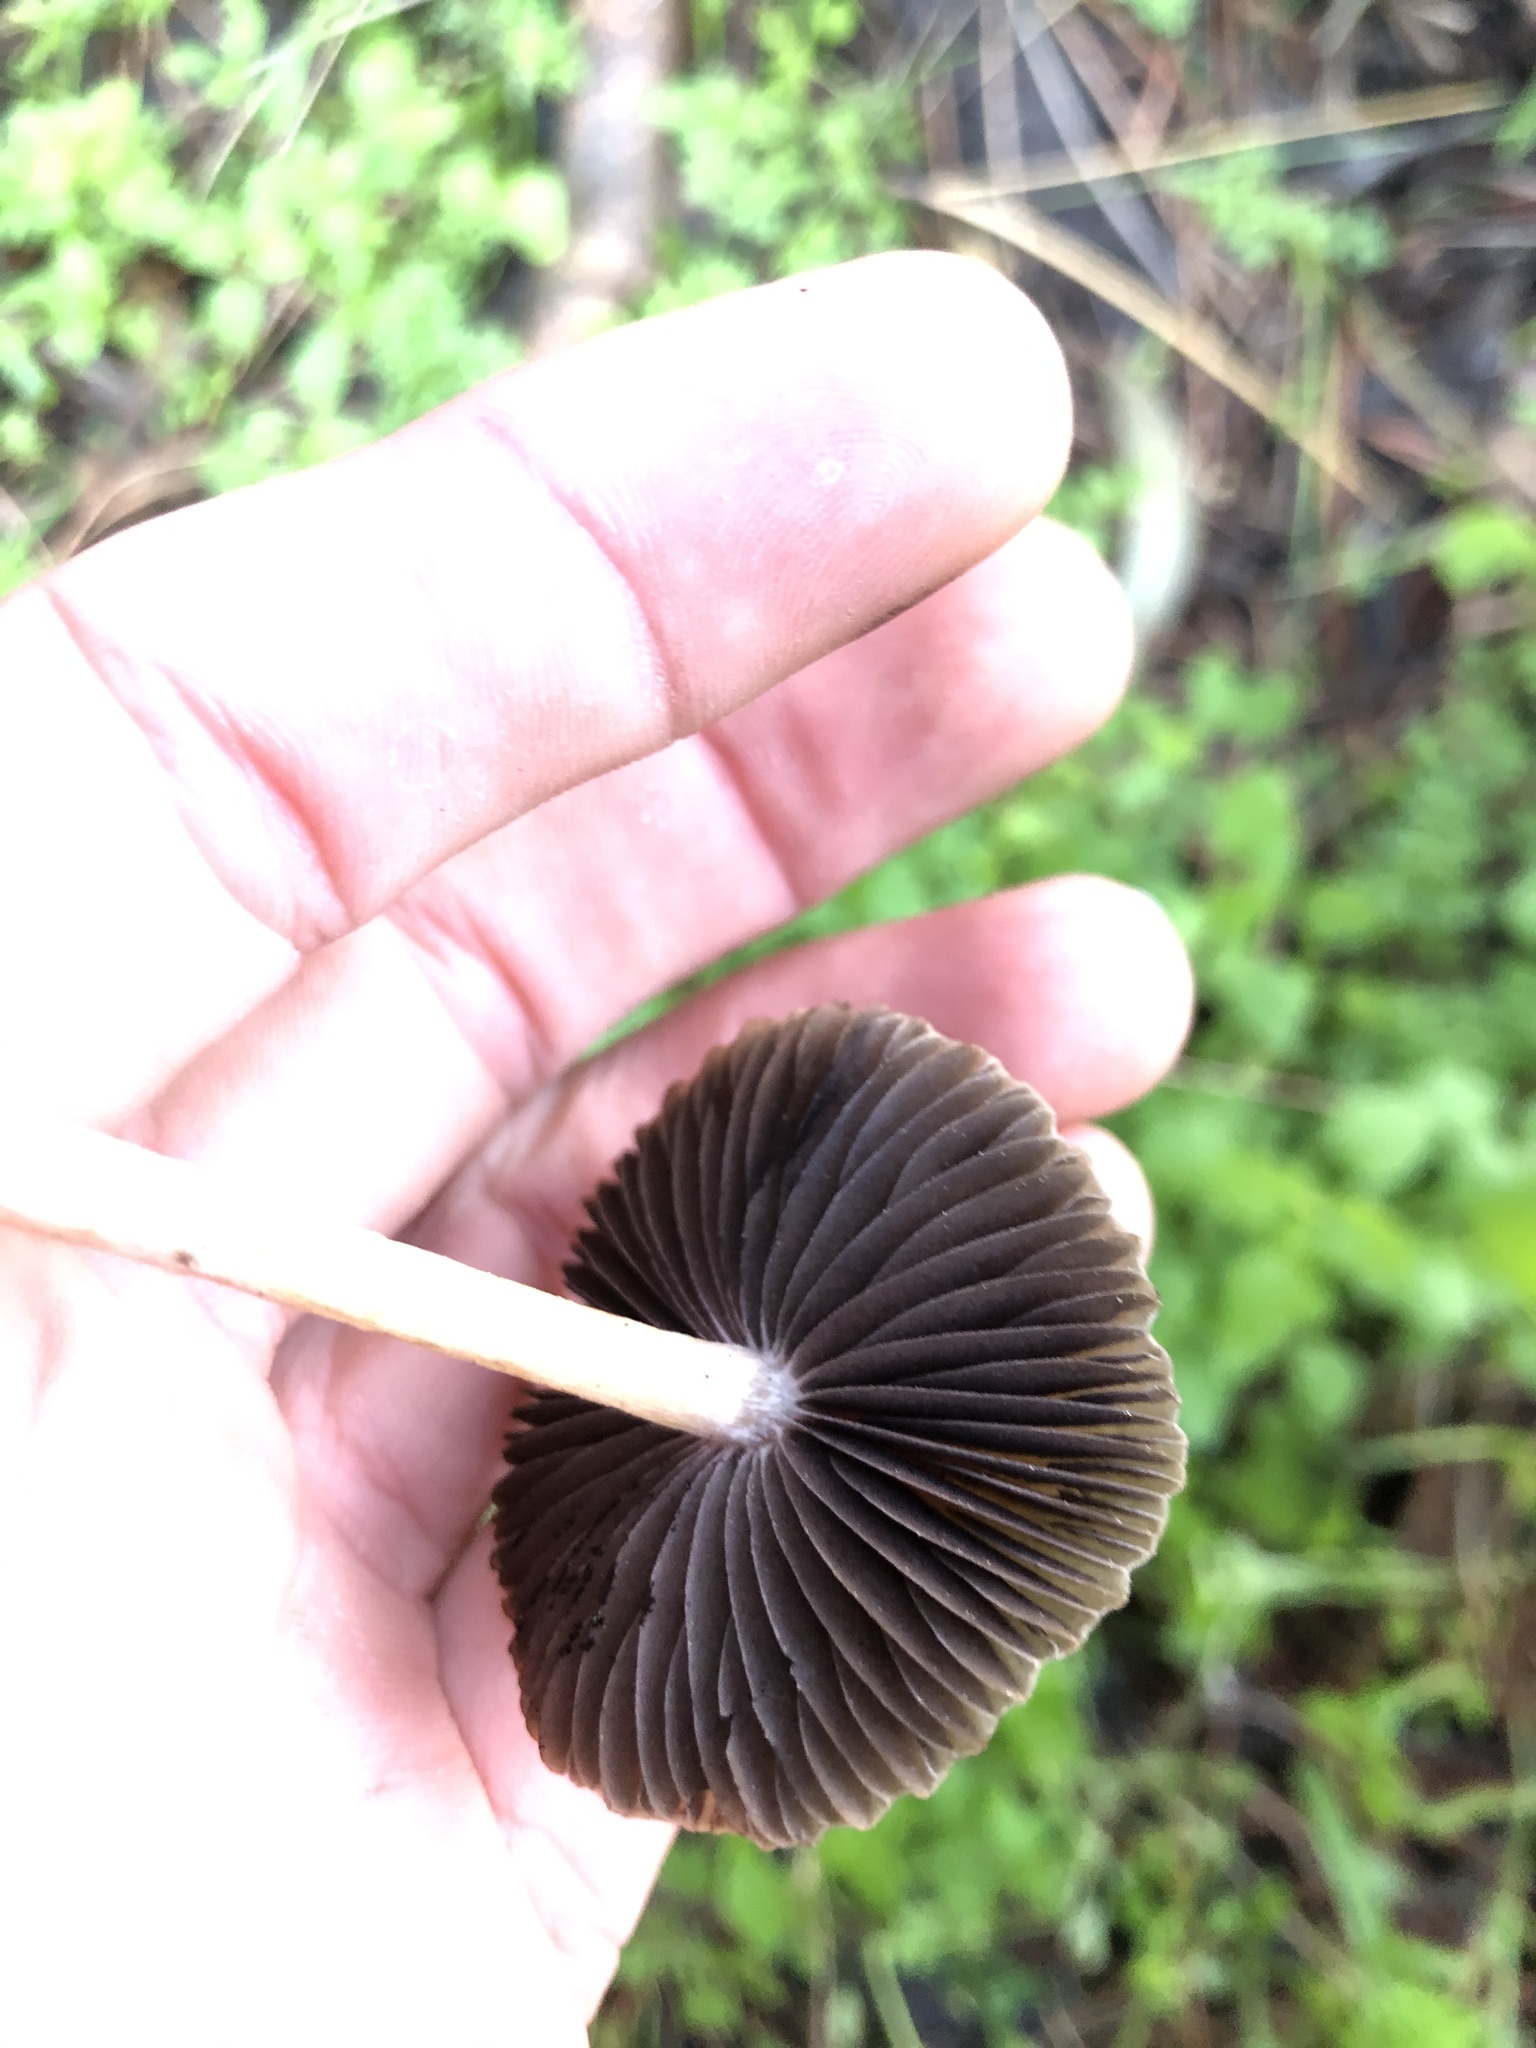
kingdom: Fungi
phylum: Basidiomycota
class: Agaricomycetes
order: Agaricales
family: Psathyrellaceae
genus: Psathyrella
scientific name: Psathyrella bipellis
